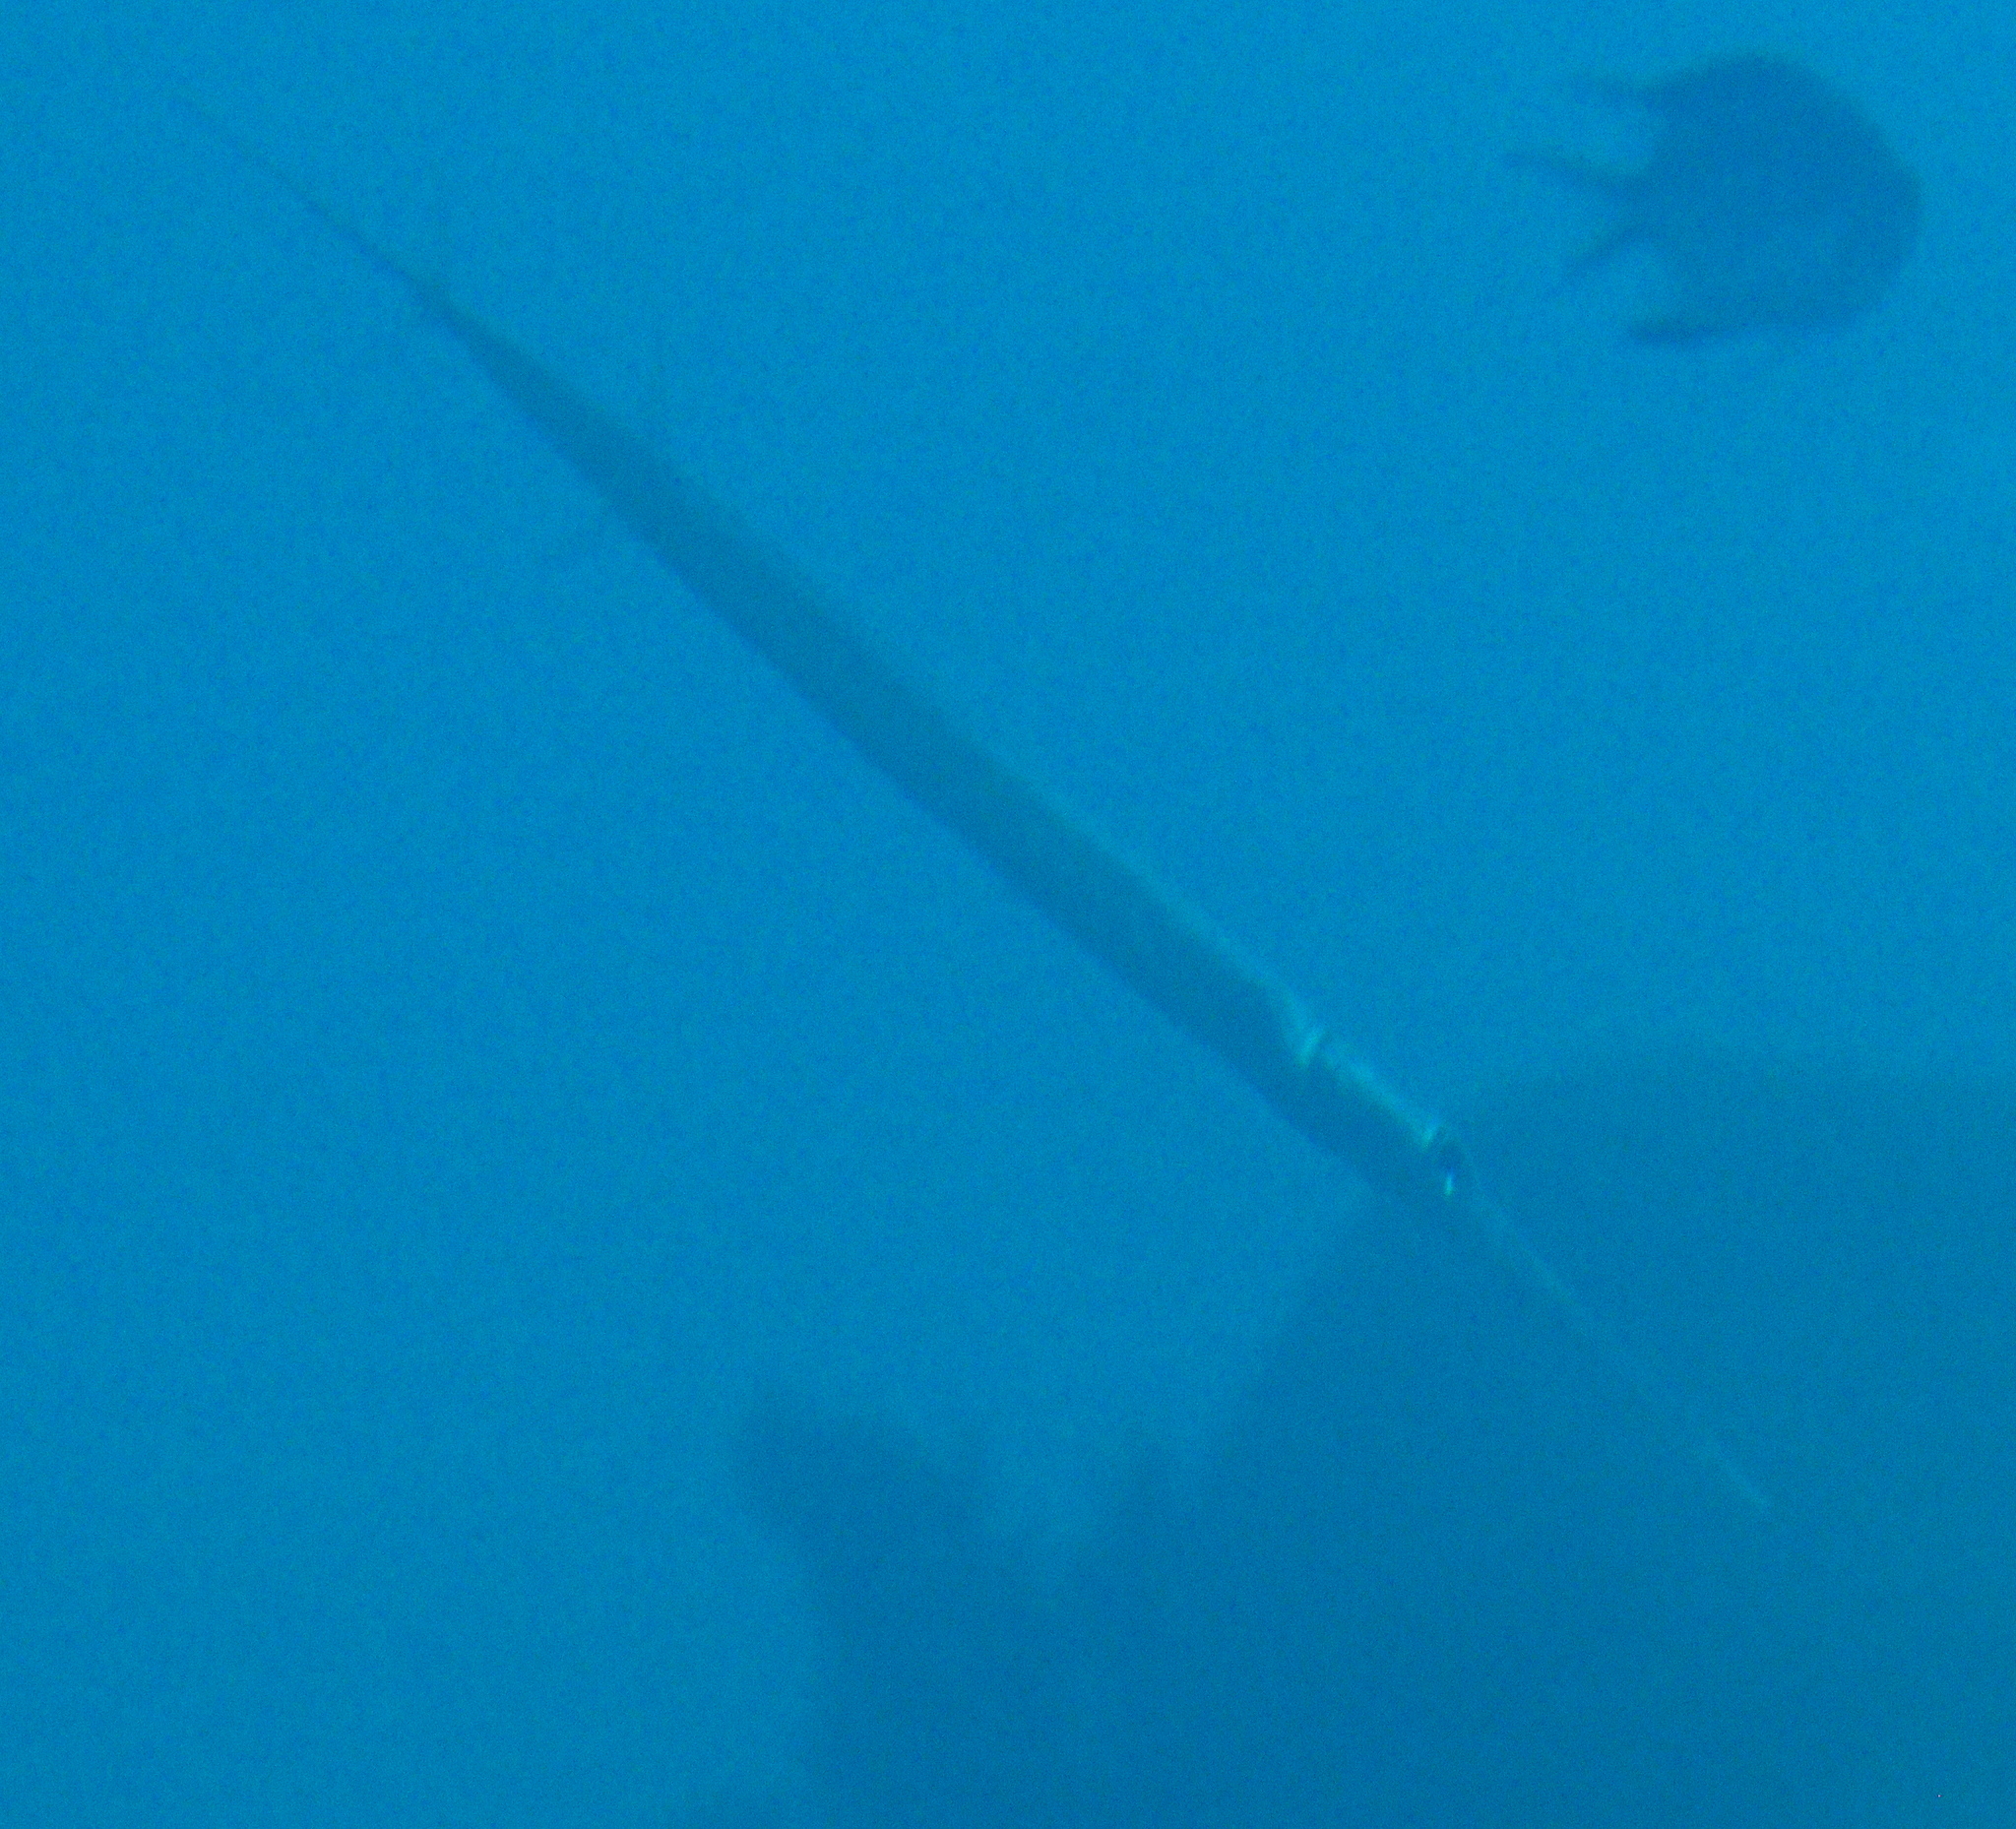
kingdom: Animalia
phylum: Chordata
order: Syngnathiformes
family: Fistulariidae
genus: Fistularia
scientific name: Fistularia commersonii
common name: Bluespotted cornetfish
